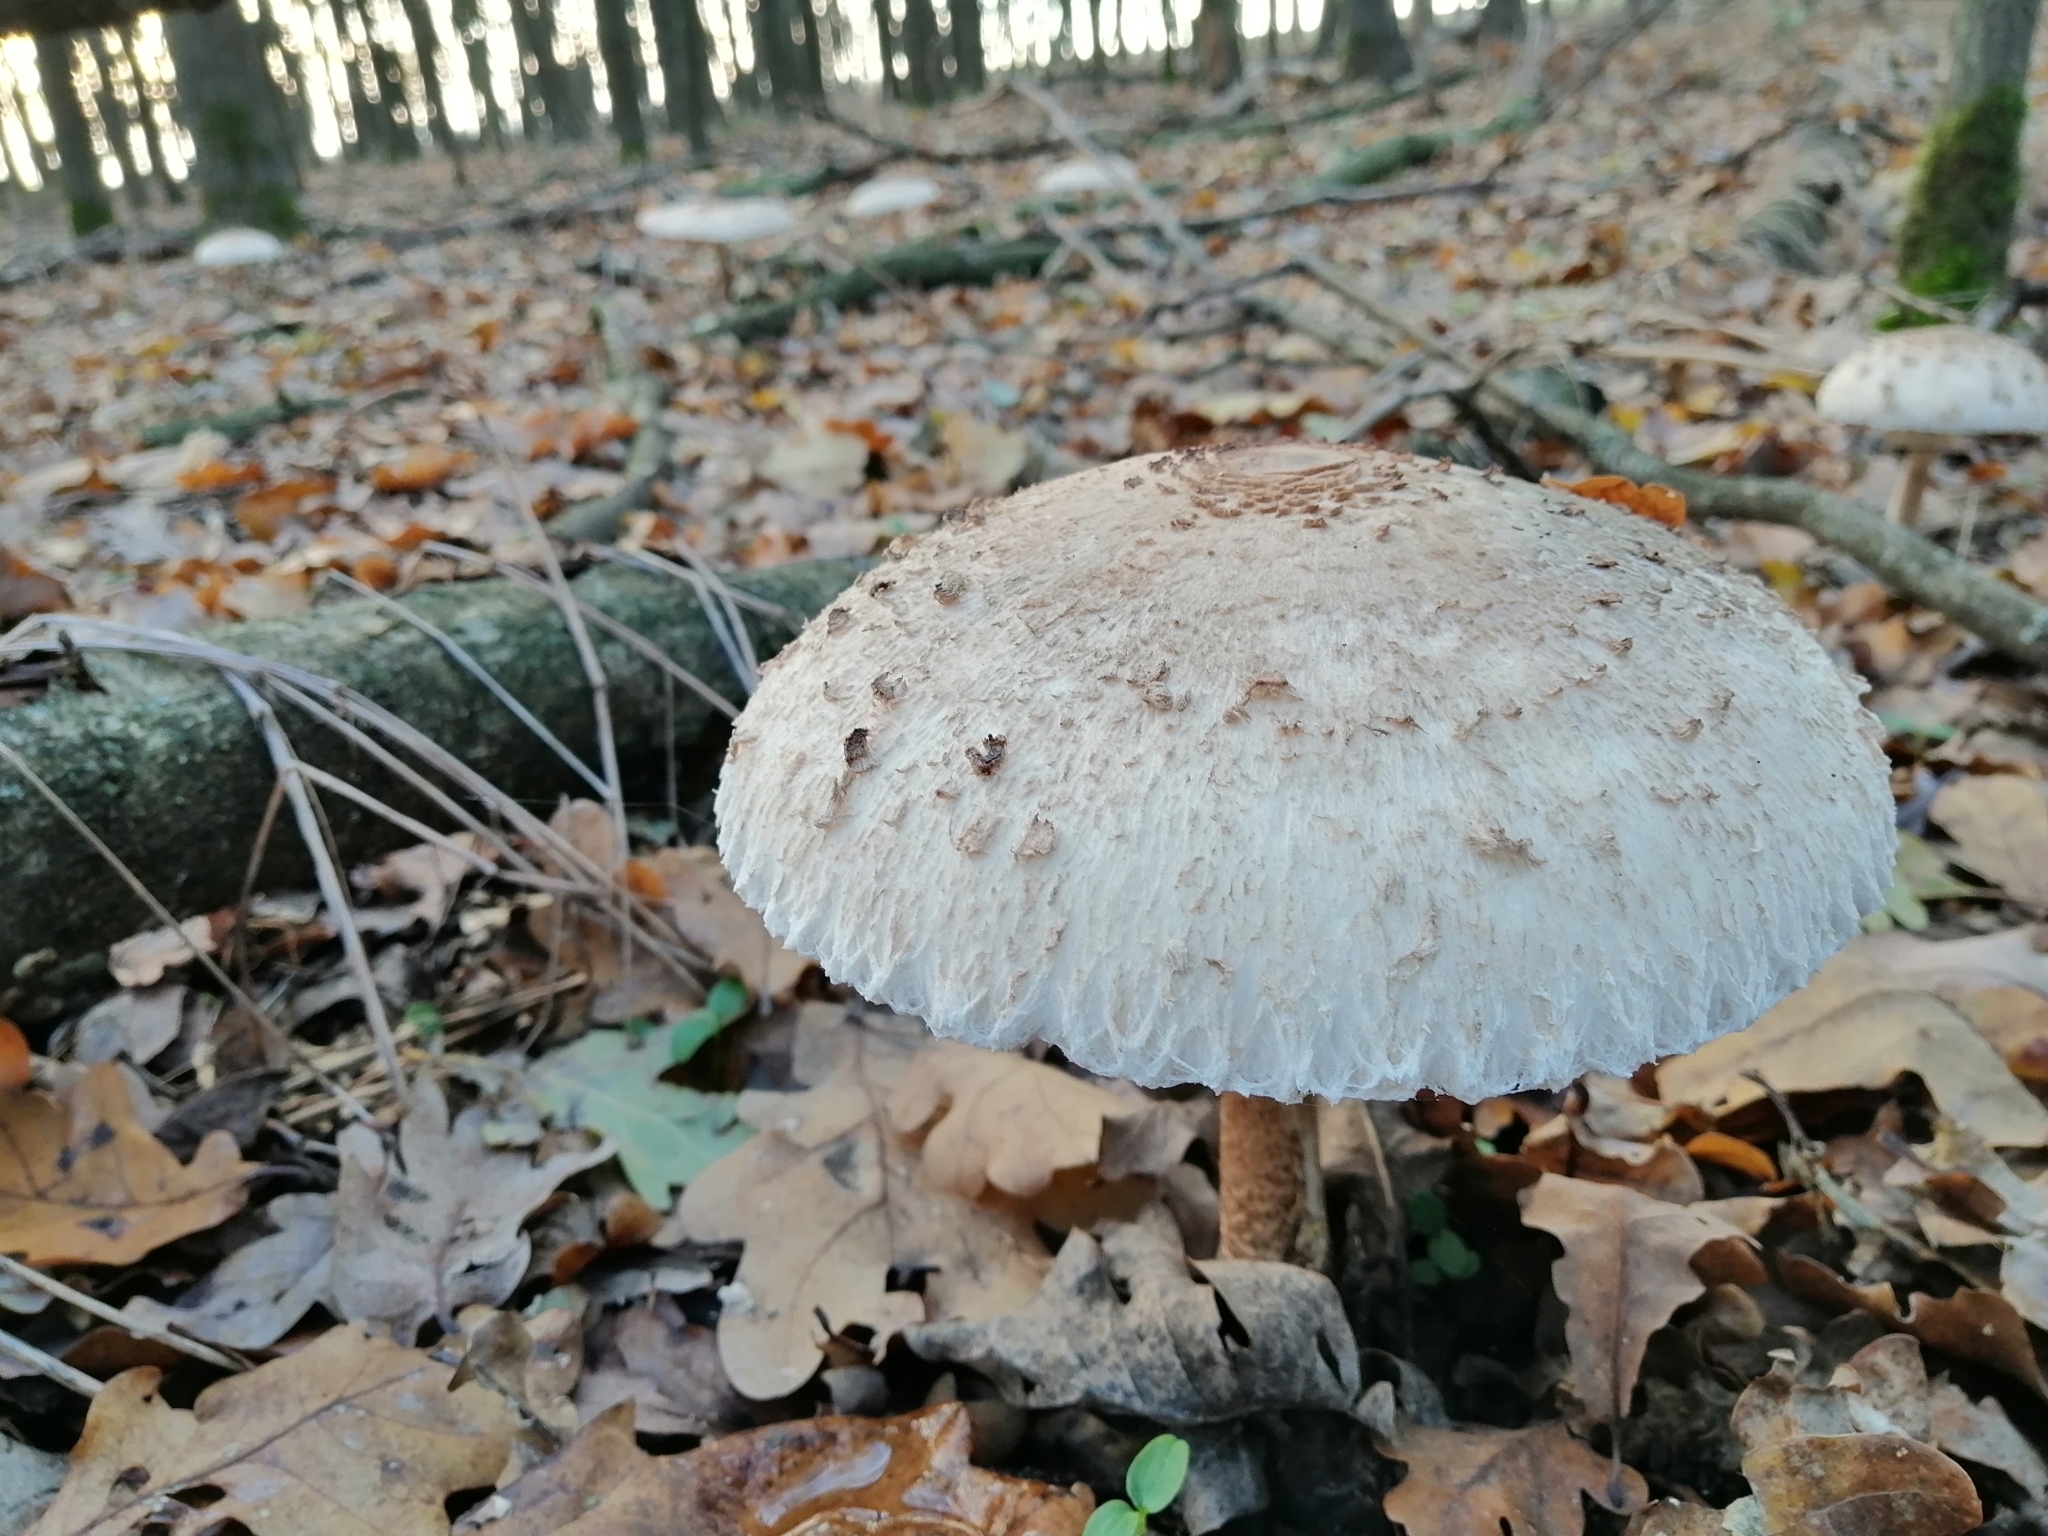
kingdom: Fungi
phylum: Basidiomycota
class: Agaricomycetes
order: Agaricales
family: Agaricaceae
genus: Macrolepiota
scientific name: Macrolepiota procera
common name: Parasol
